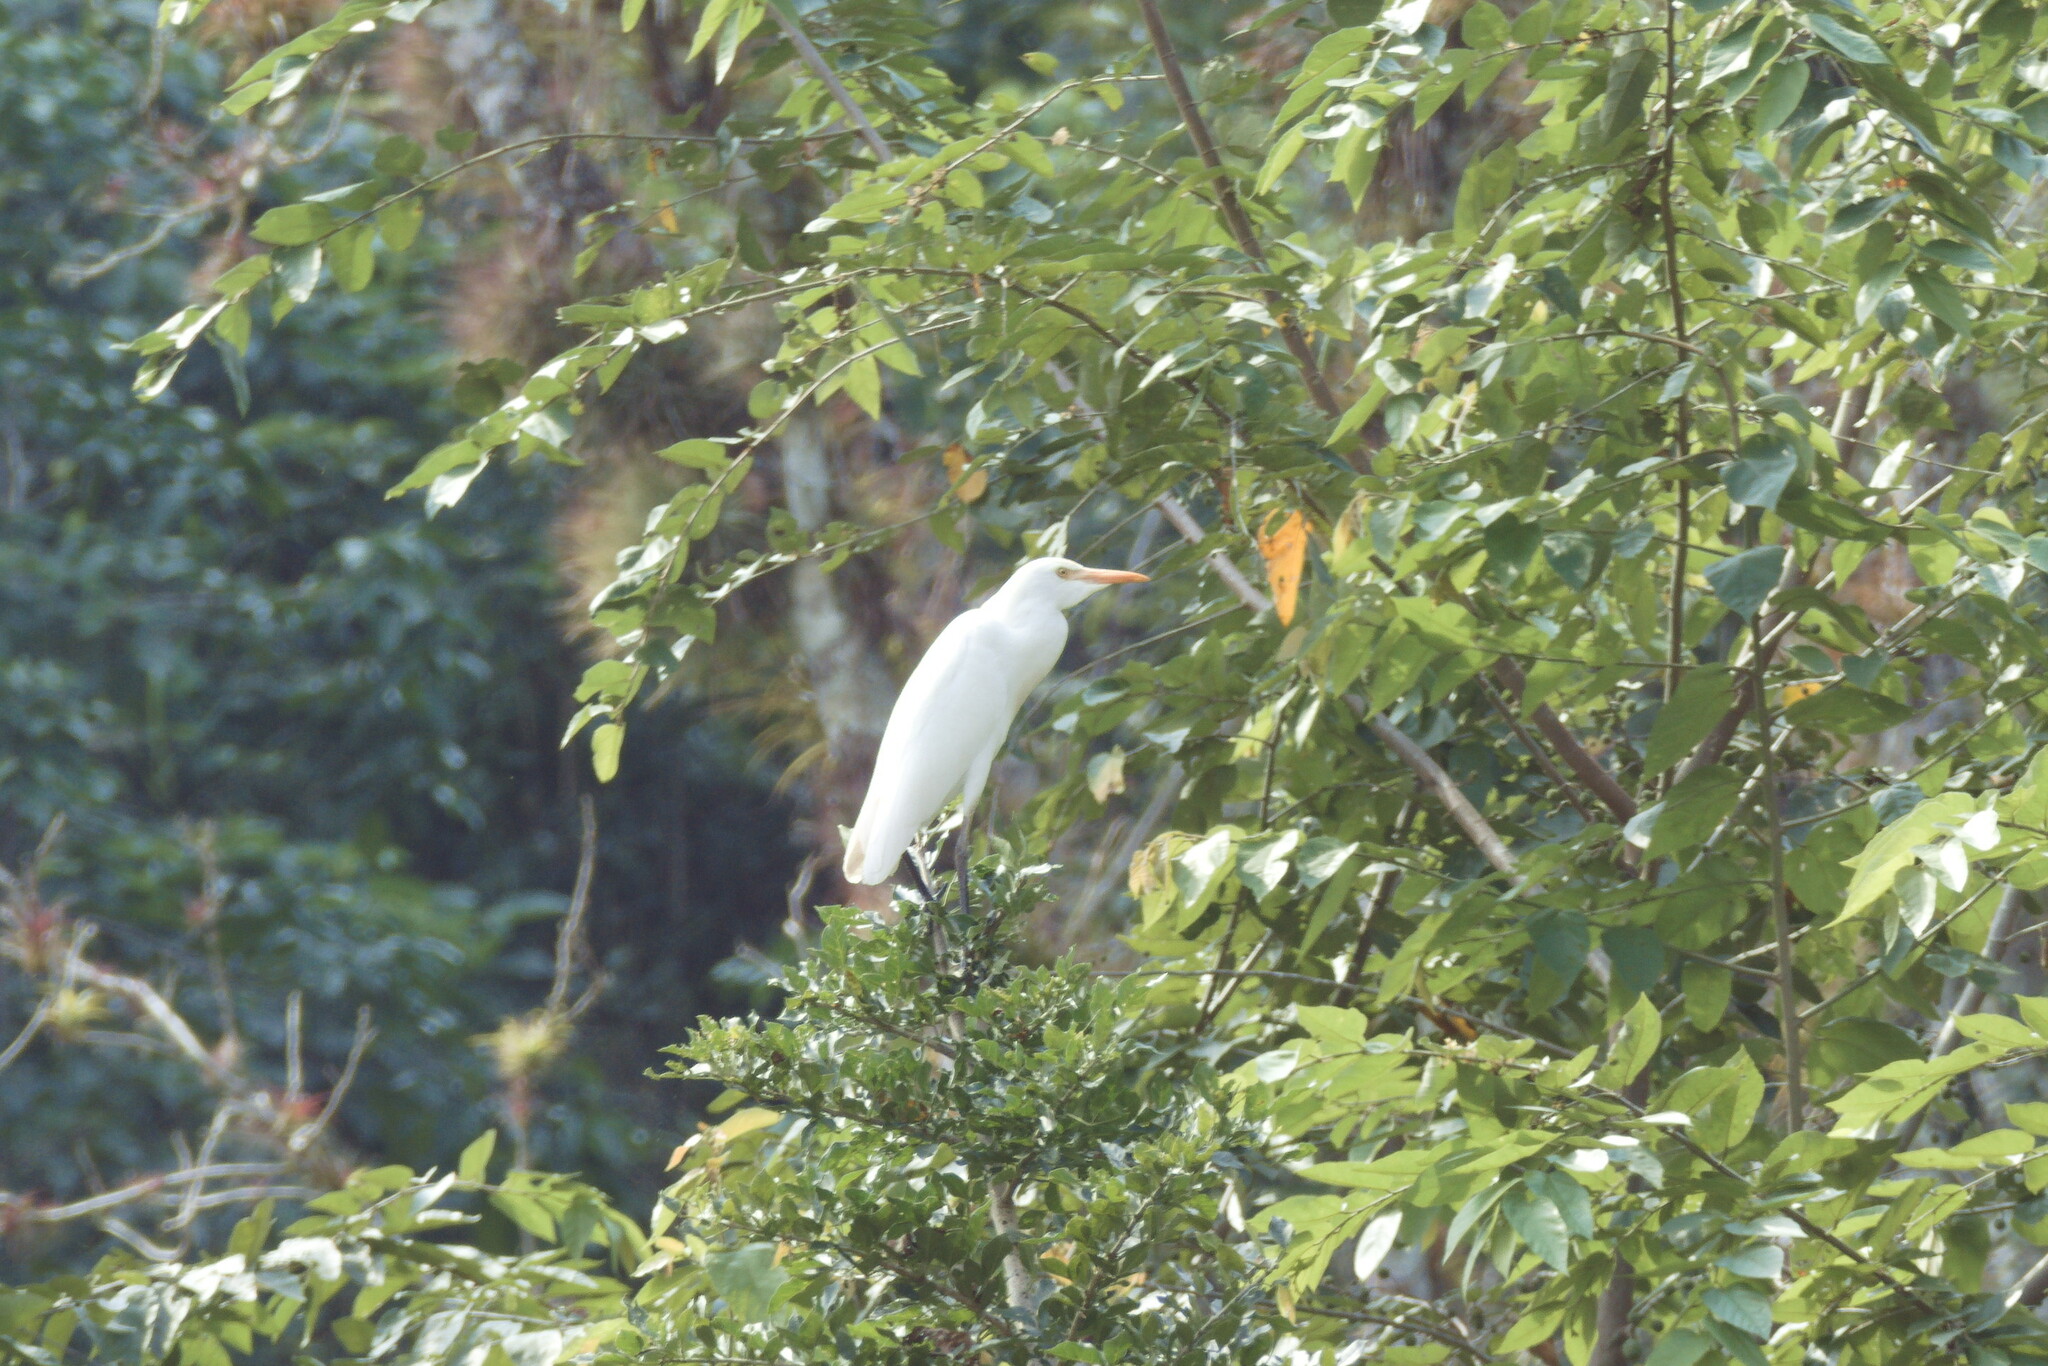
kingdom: Animalia
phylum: Chordata
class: Aves
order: Pelecaniformes
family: Ardeidae
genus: Bubulcus
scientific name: Bubulcus ibis
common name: Cattle egret
